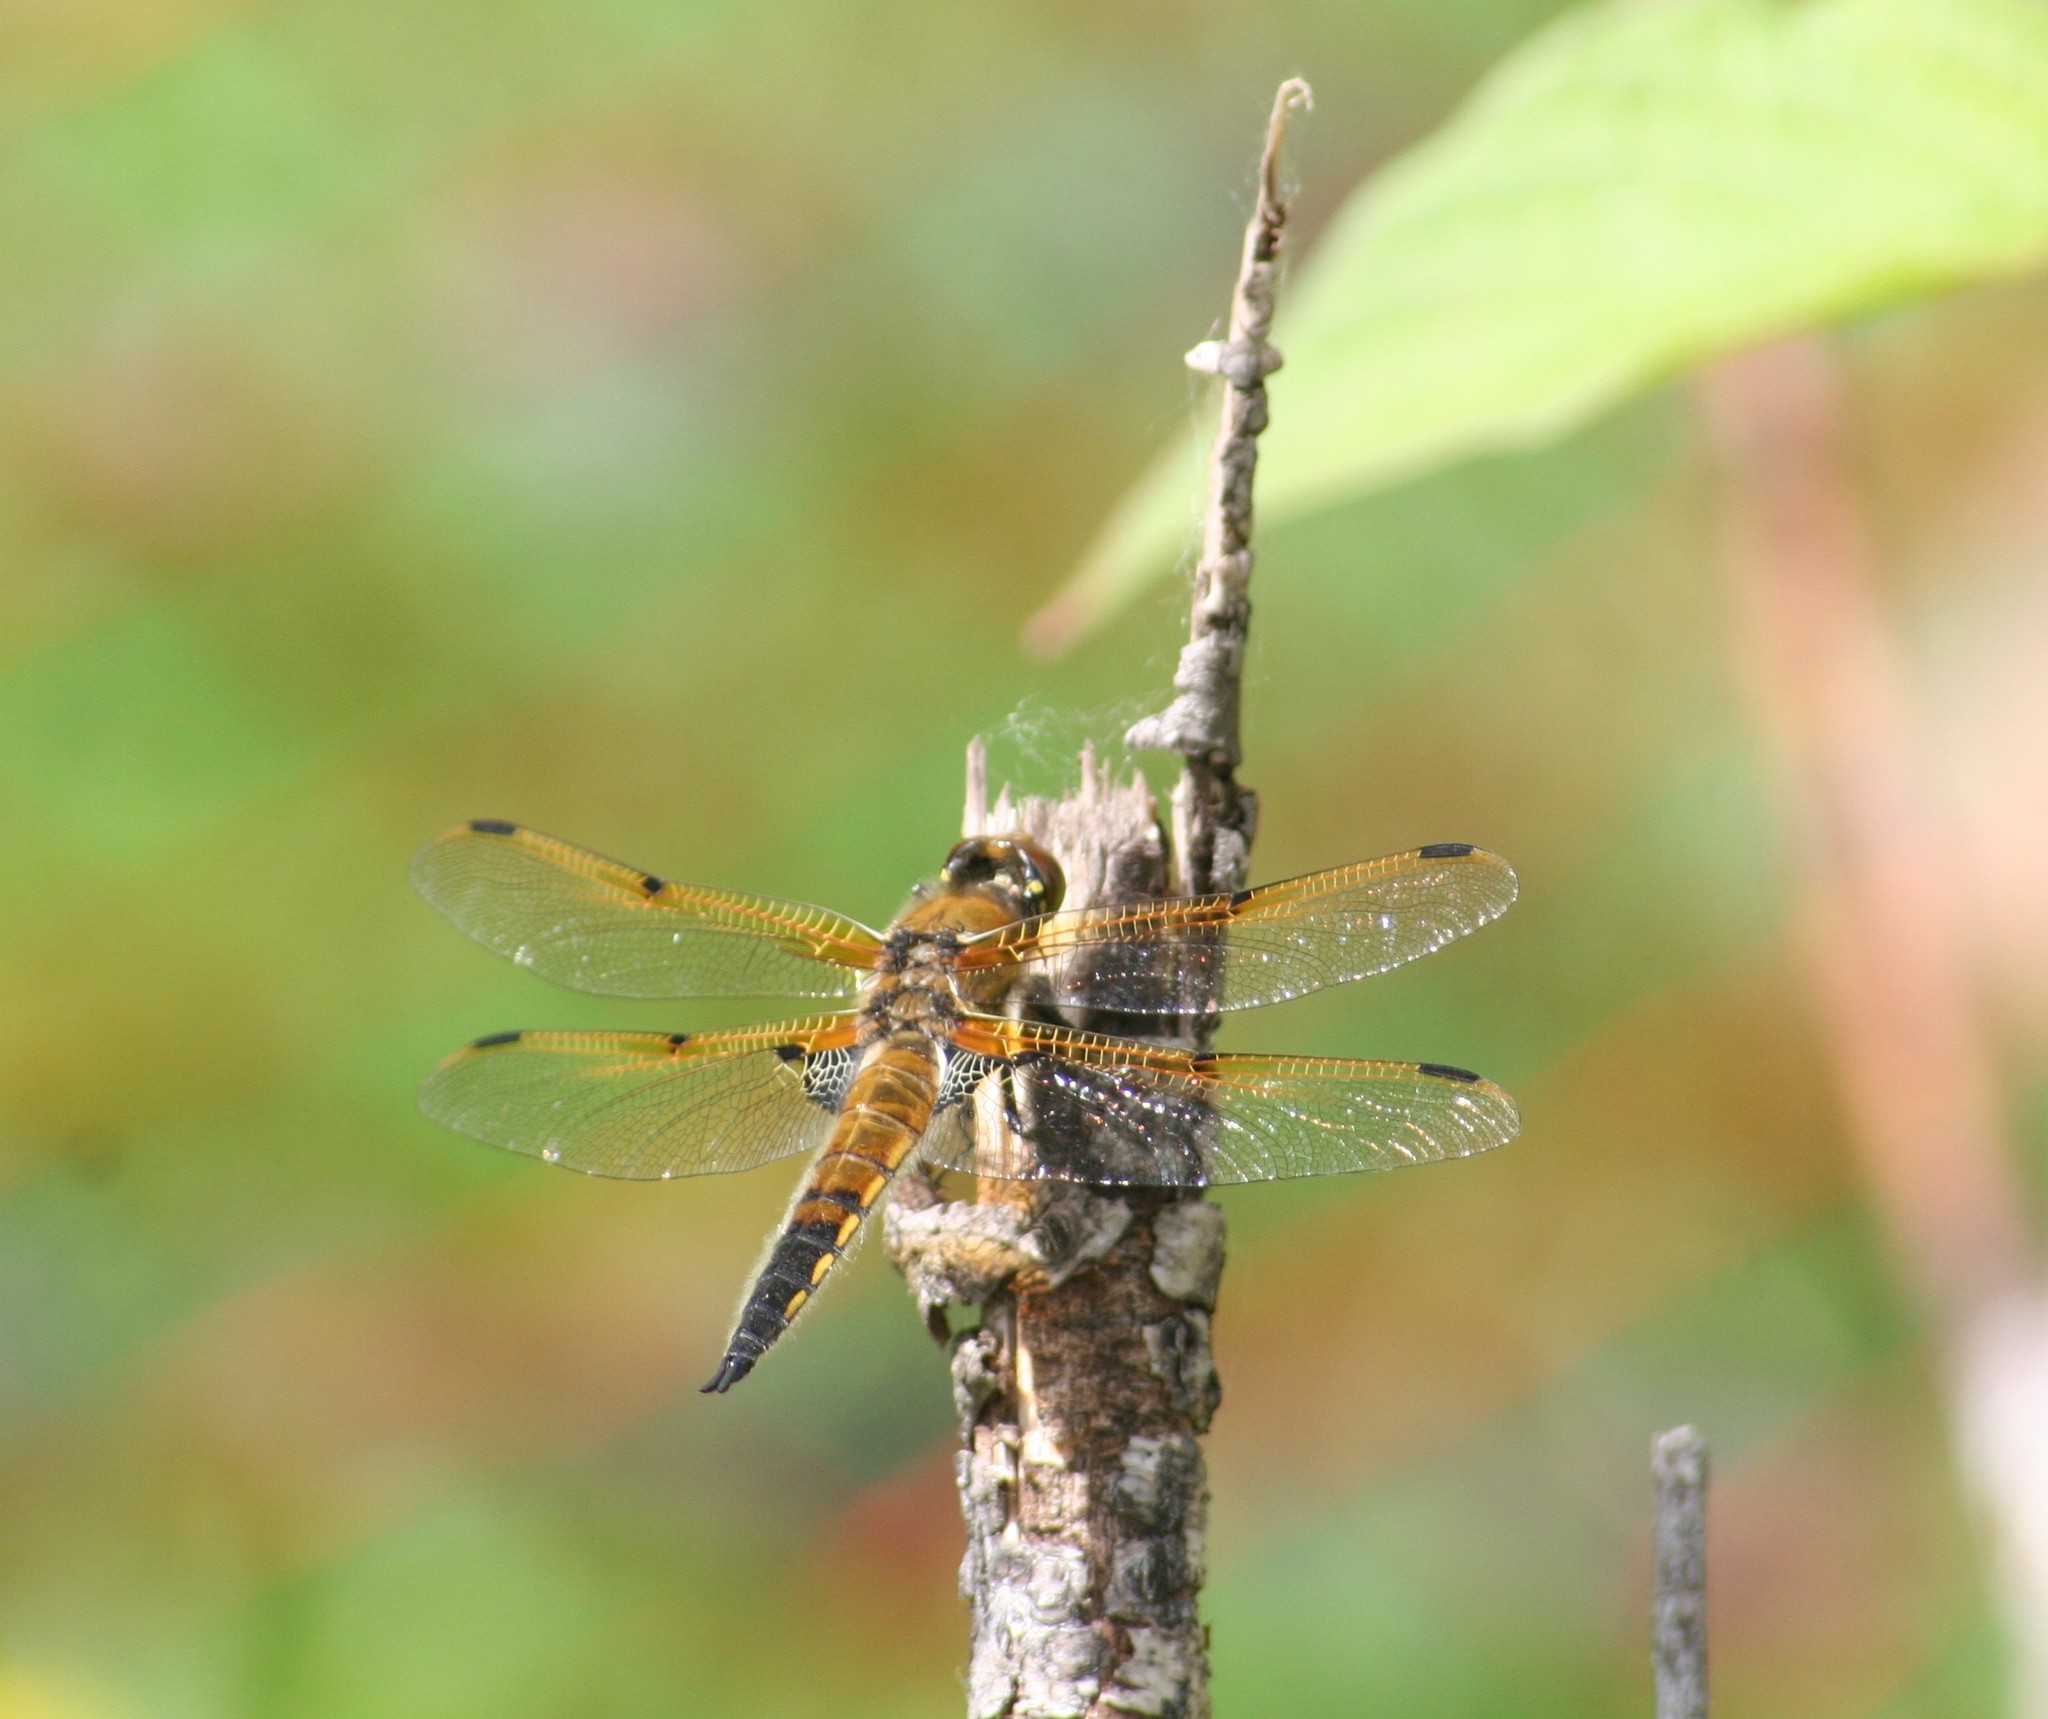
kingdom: Animalia
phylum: Arthropoda
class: Insecta
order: Odonata
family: Libellulidae
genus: Libellula
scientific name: Libellula quadrimaculata
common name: Four-spotted chaser
